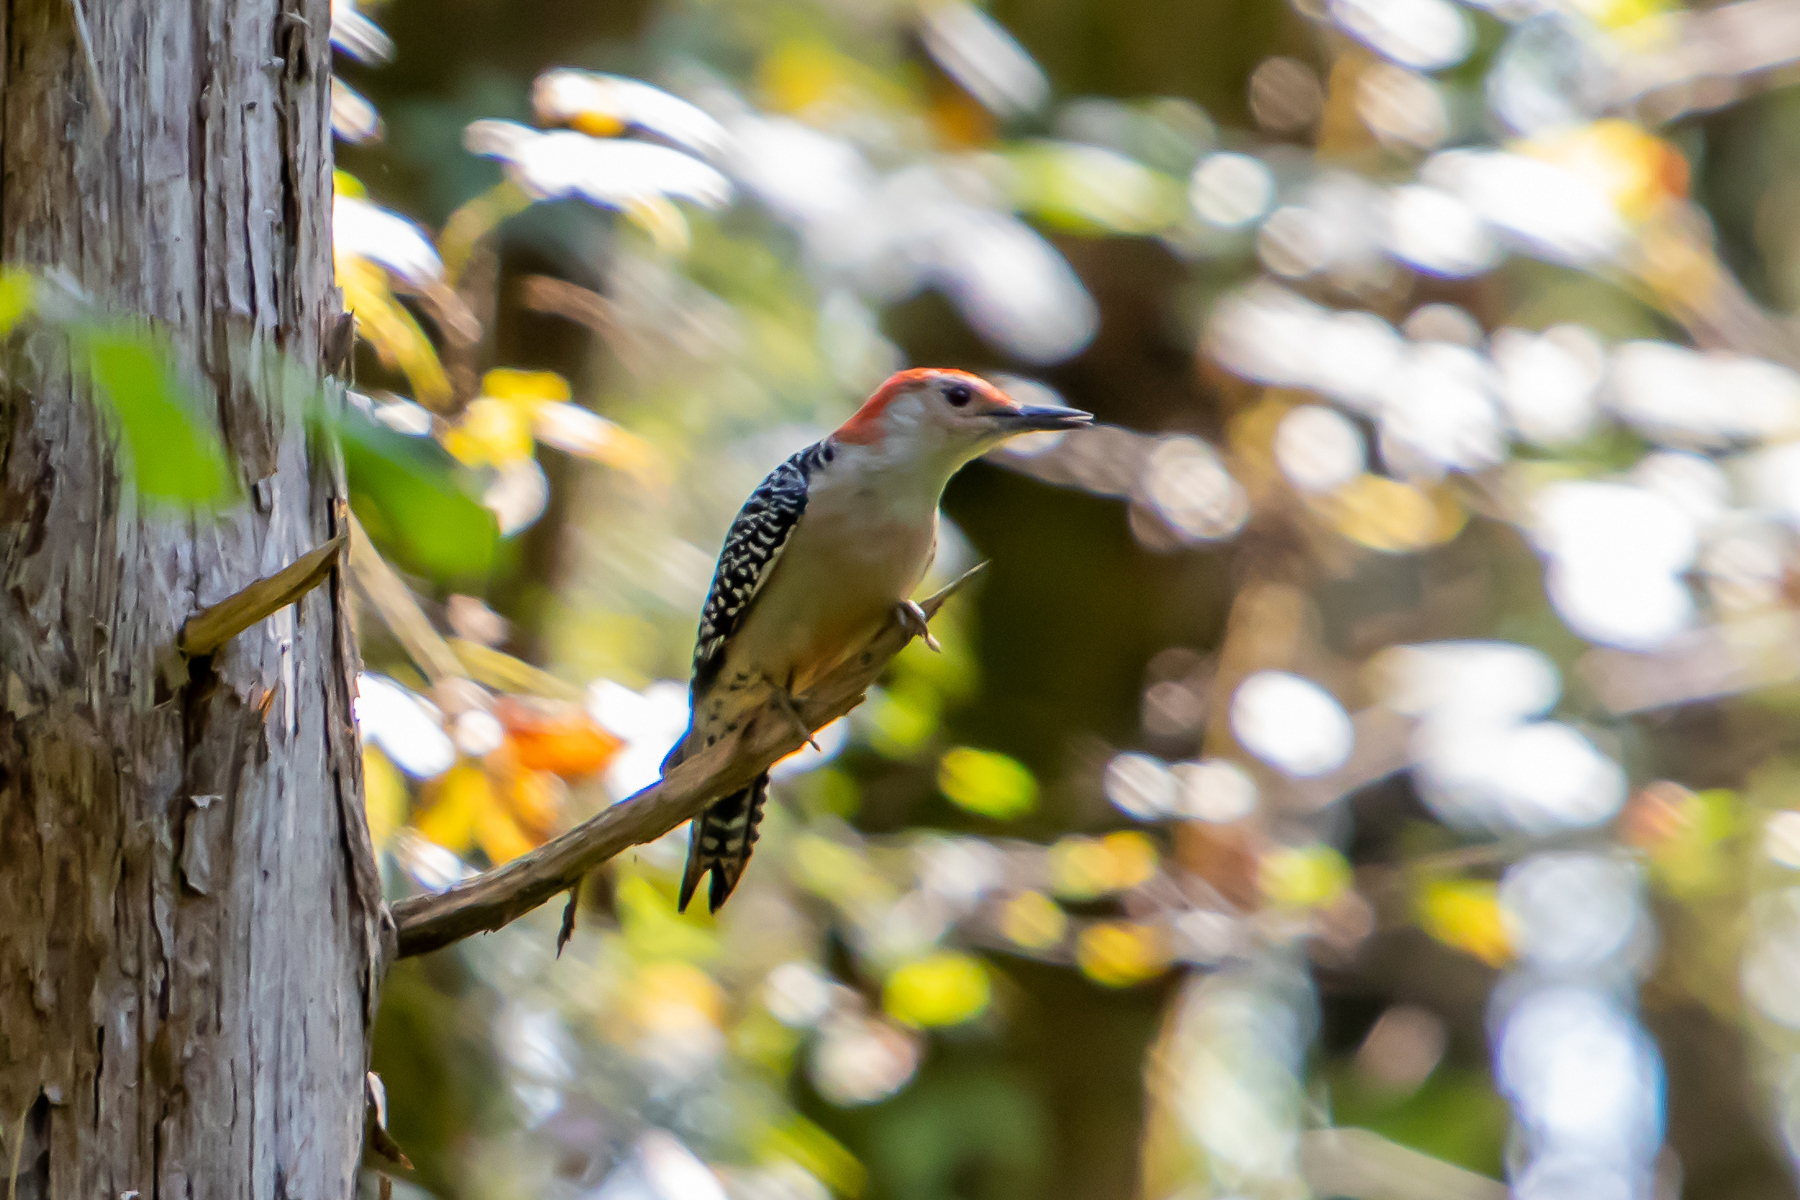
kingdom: Animalia
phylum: Chordata
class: Aves
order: Piciformes
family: Picidae
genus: Melanerpes
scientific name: Melanerpes carolinus
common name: Red-bellied woodpecker
